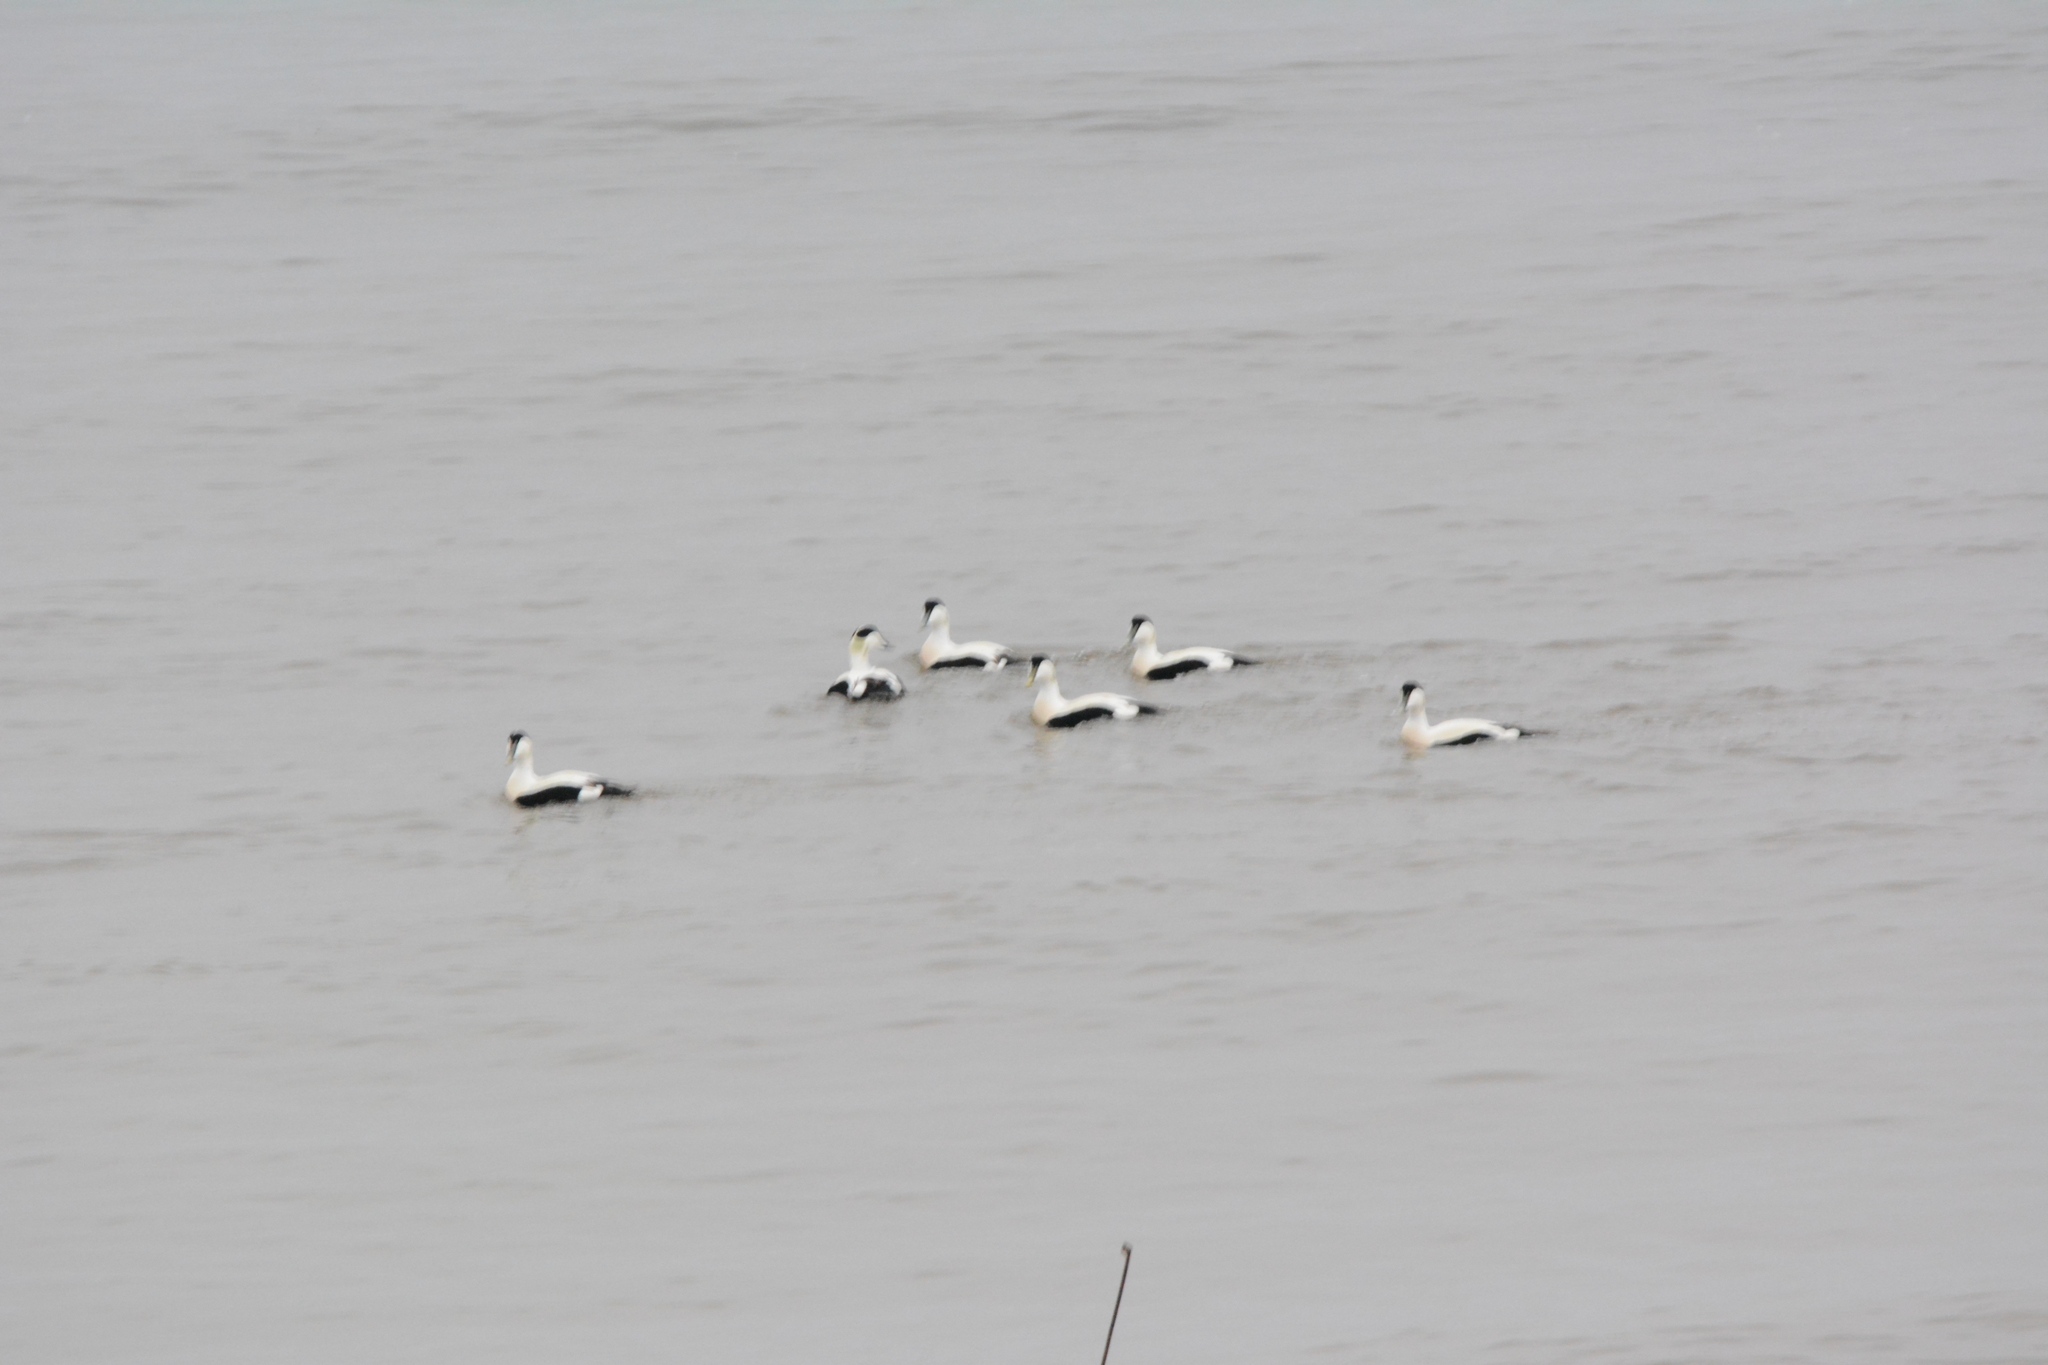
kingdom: Animalia
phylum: Chordata
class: Aves
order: Anseriformes
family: Anatidae
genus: Somateria
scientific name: Somateria mollissima
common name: Common eider
